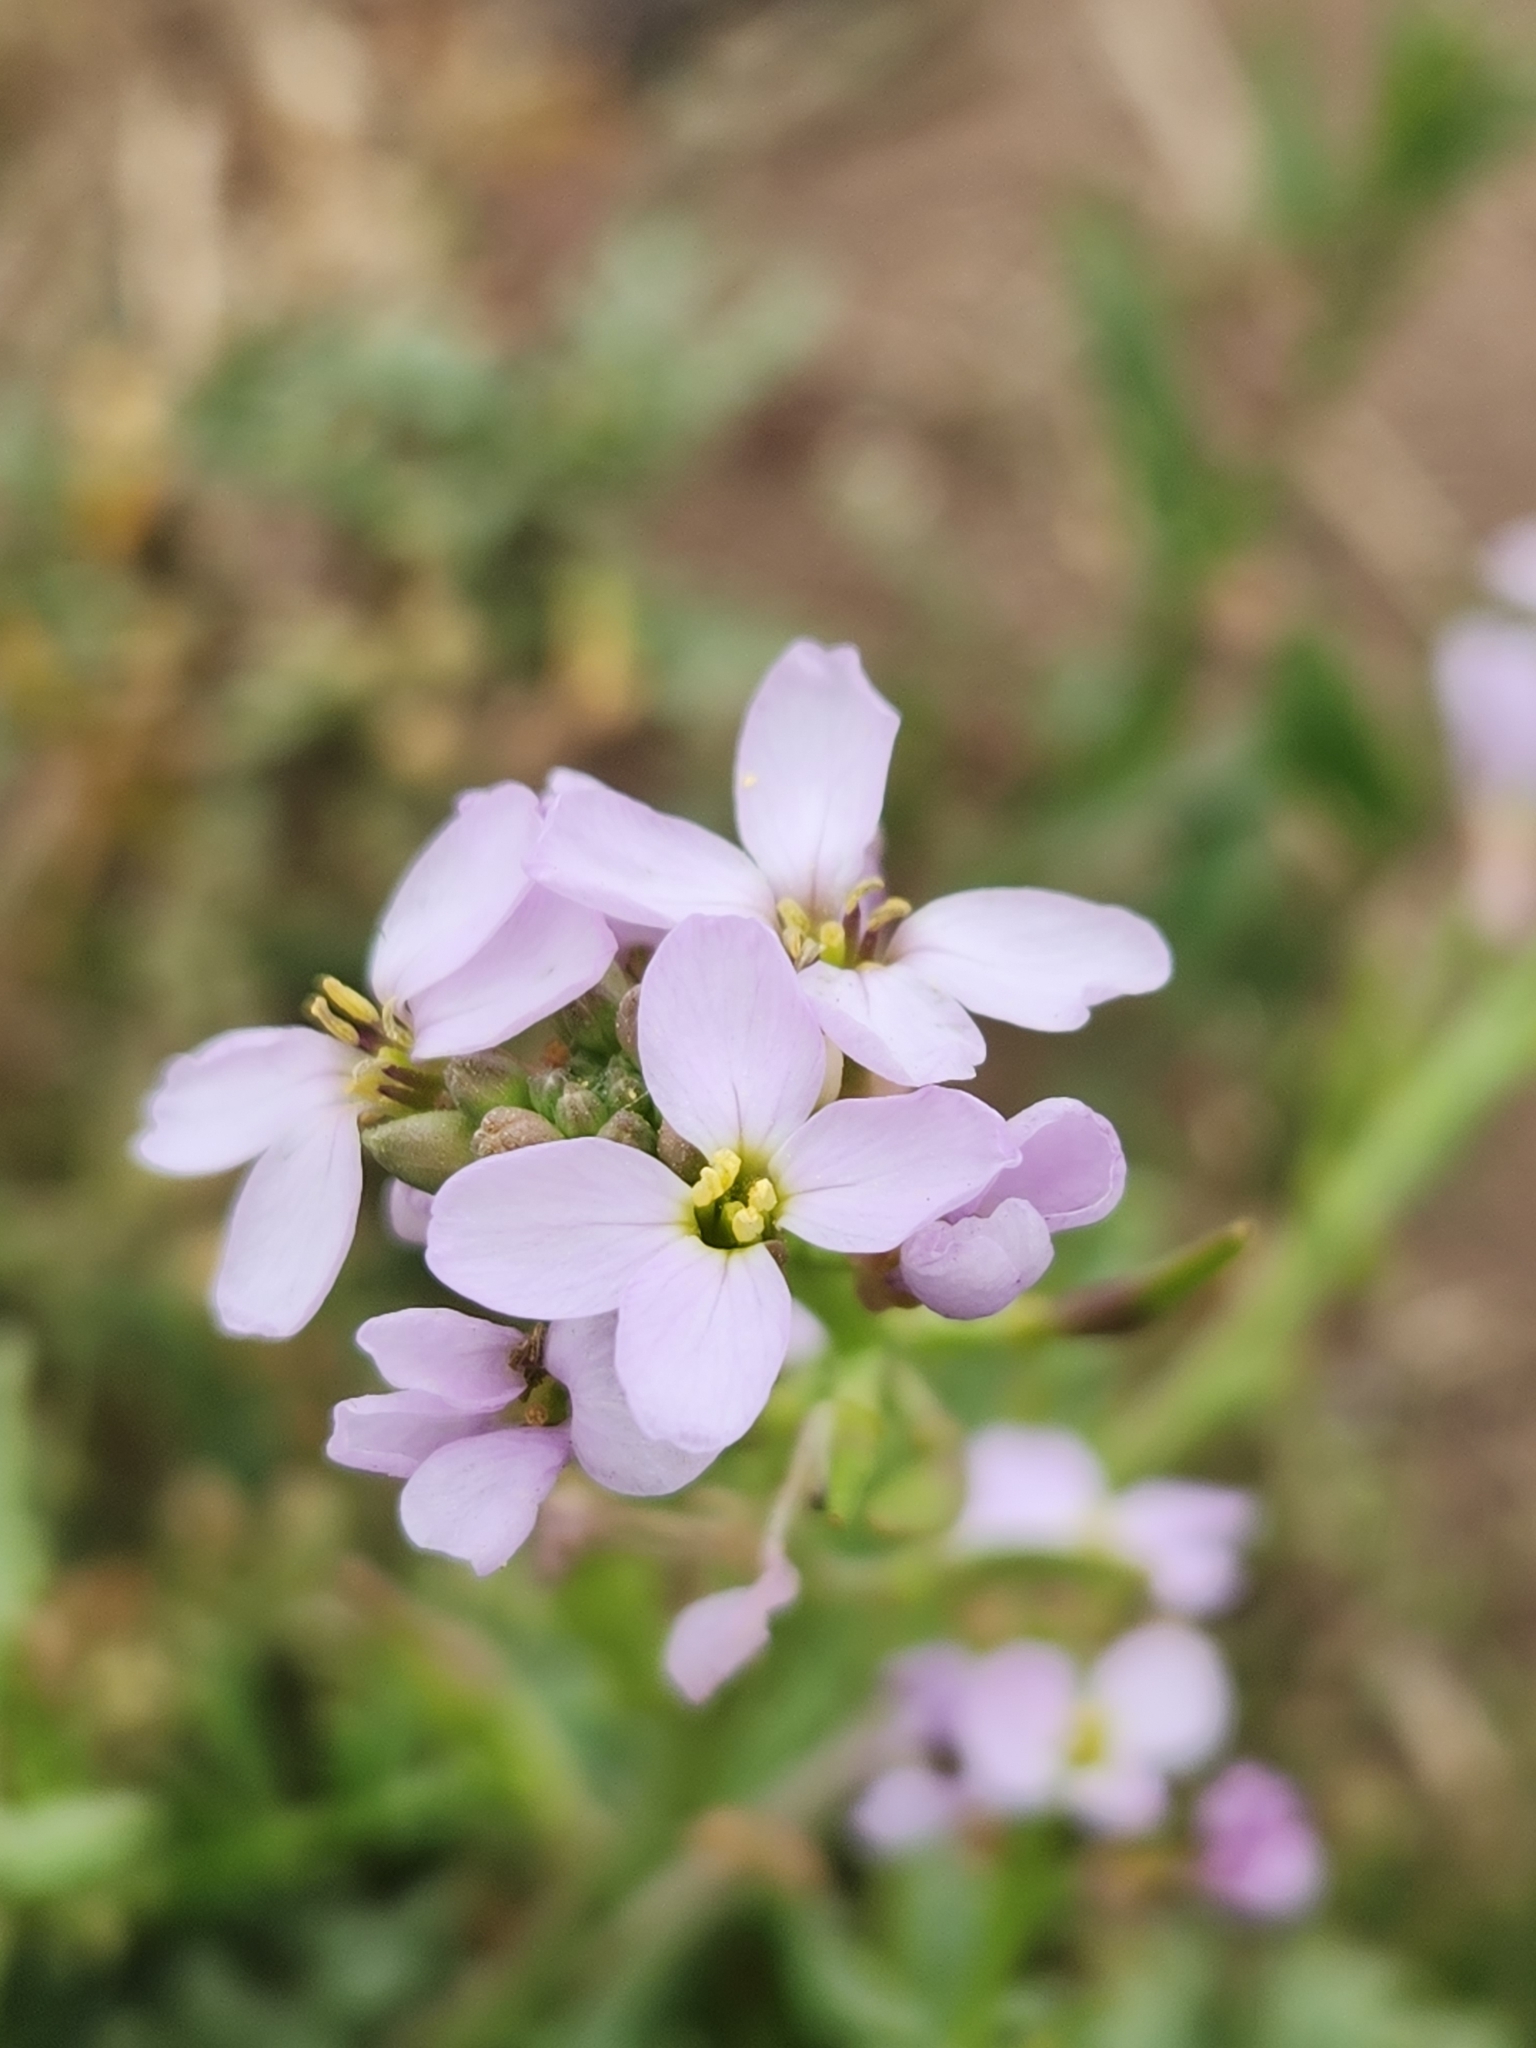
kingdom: Plantae
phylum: Tracheophyta
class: Magnoliopsida
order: Brassicales
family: Brassicaceae
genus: Cakile
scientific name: Cakile maritima
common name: Sea rocket
